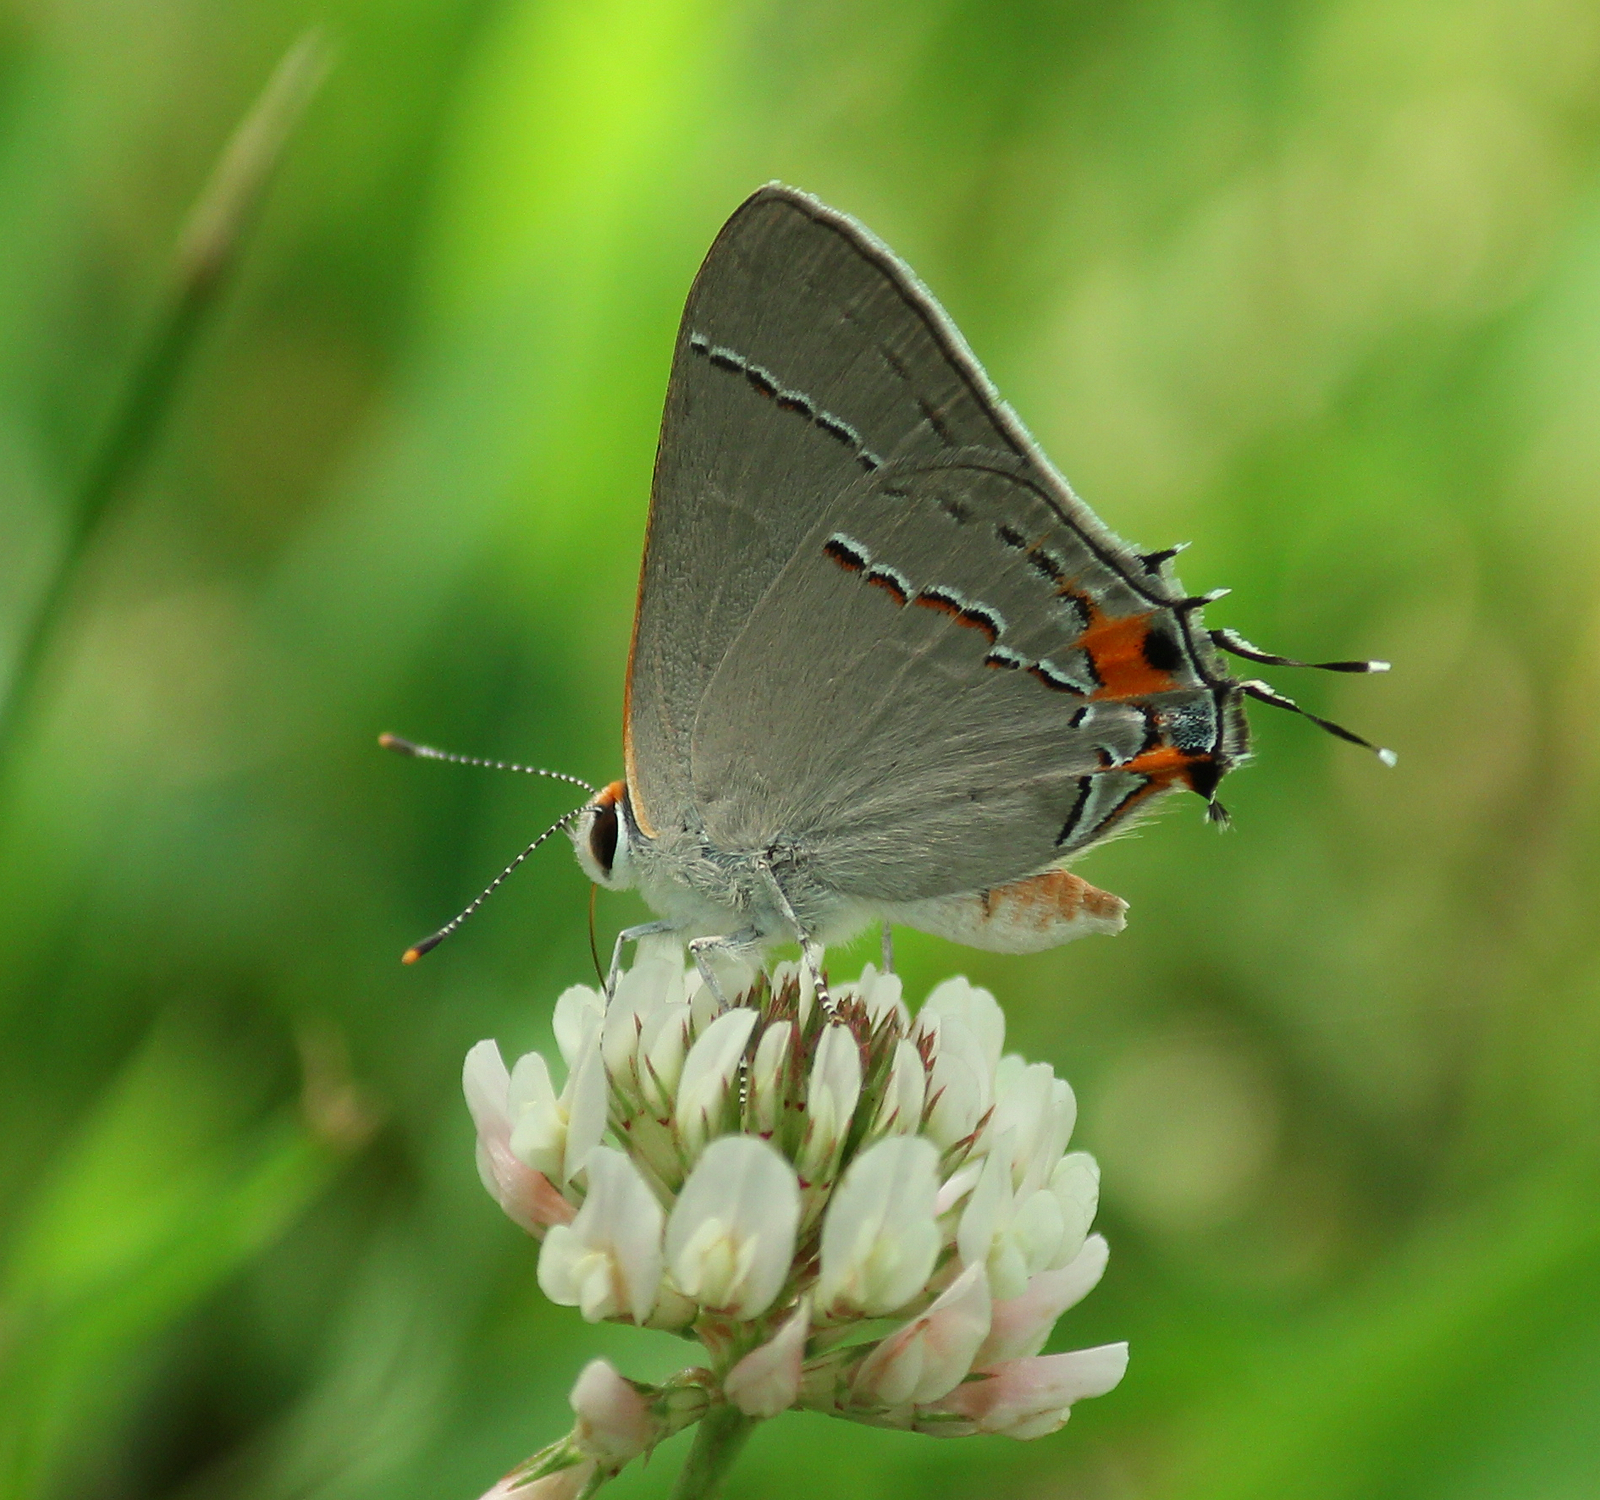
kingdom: Animalia
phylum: Arthropoda
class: Insecta
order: Lepidoptera
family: Lycaenidae
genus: Strymon
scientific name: Strymon melinus
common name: Gray hairstreak
